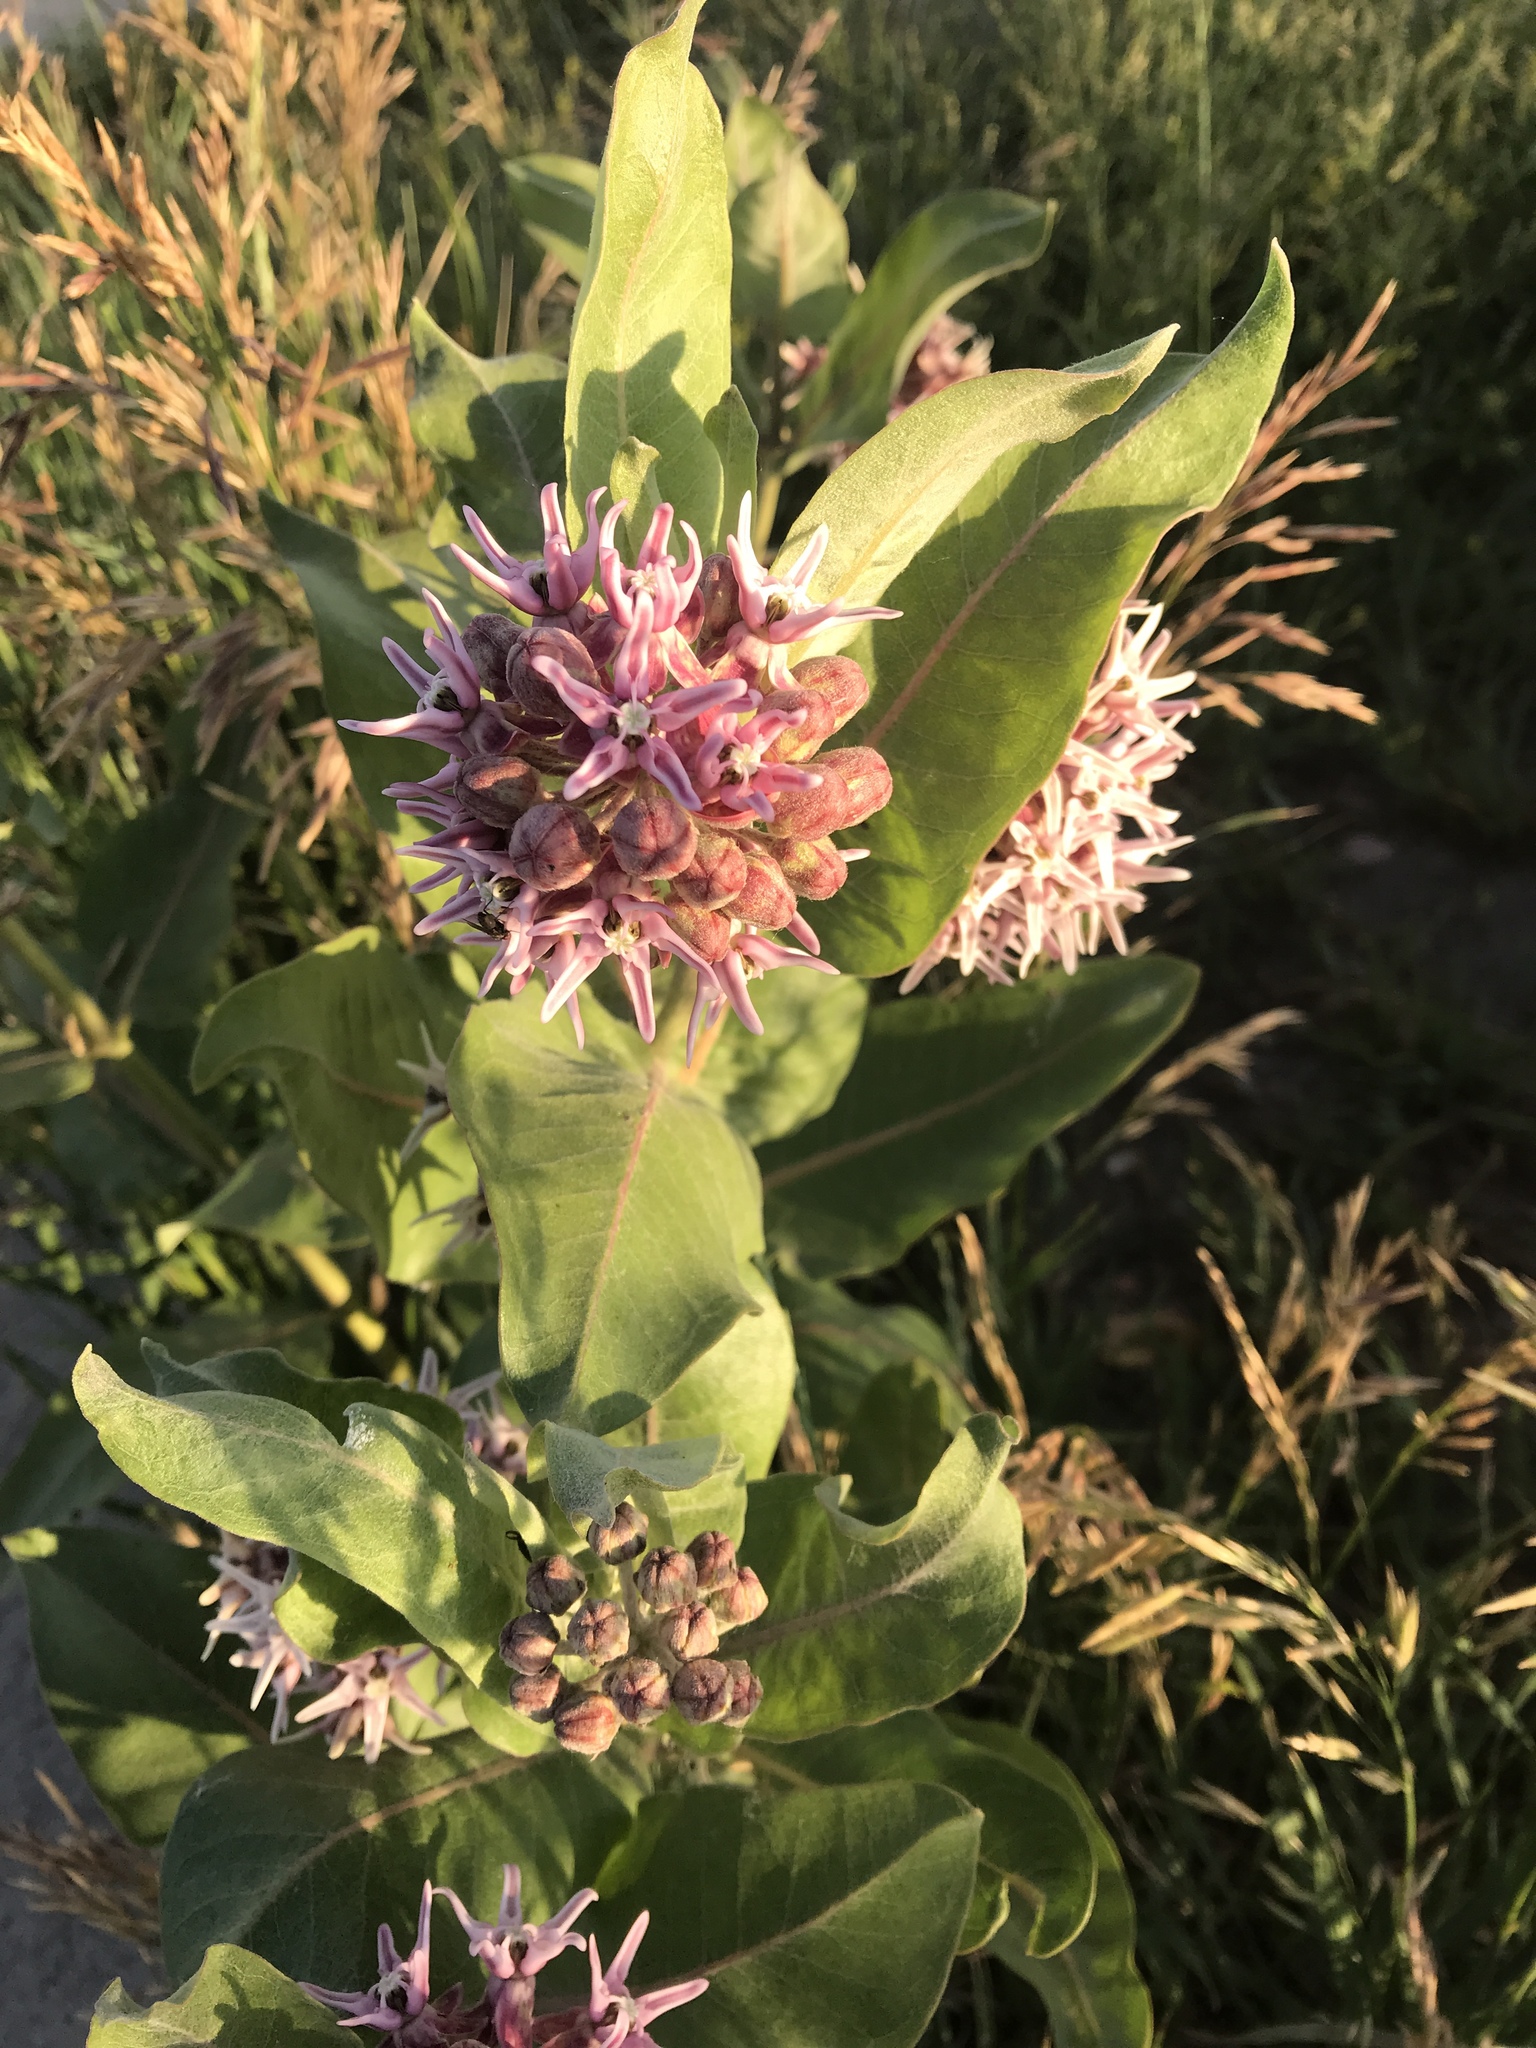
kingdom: Plantae
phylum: Tracheophyta
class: Magnoliopsida
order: Gentianales
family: Apocynaceae
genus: Asclepias
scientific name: Asclepias speciosa
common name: Showy milkweed
